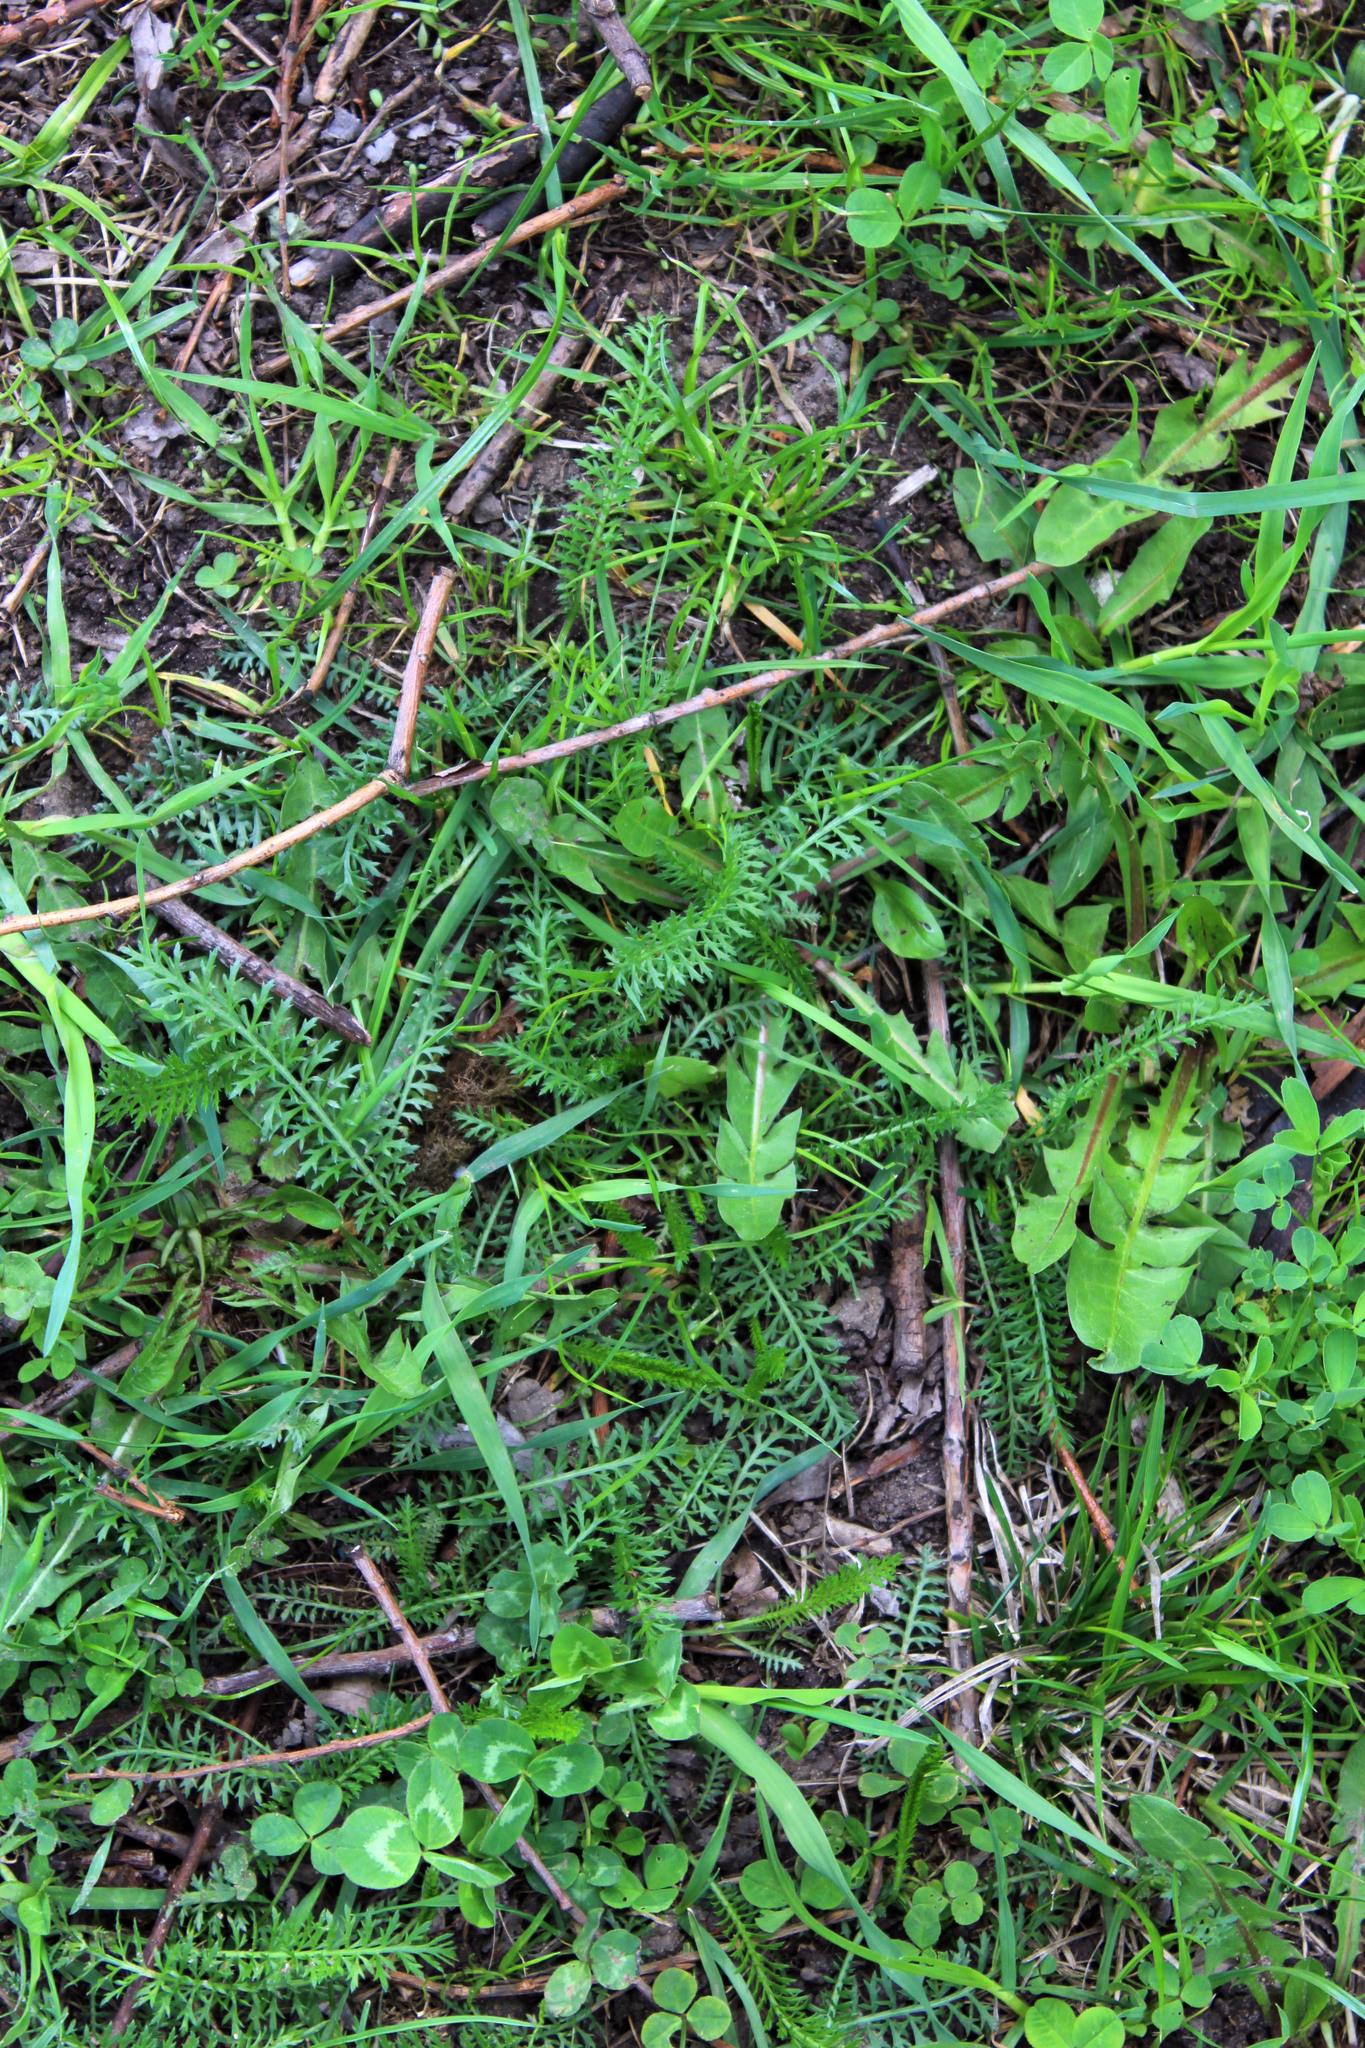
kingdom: Plantae
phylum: Tracheophyta
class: Magnoliopsida
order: Asterales
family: Asteraceae
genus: Achillea
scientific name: Achillea millefolium
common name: Yarrow
